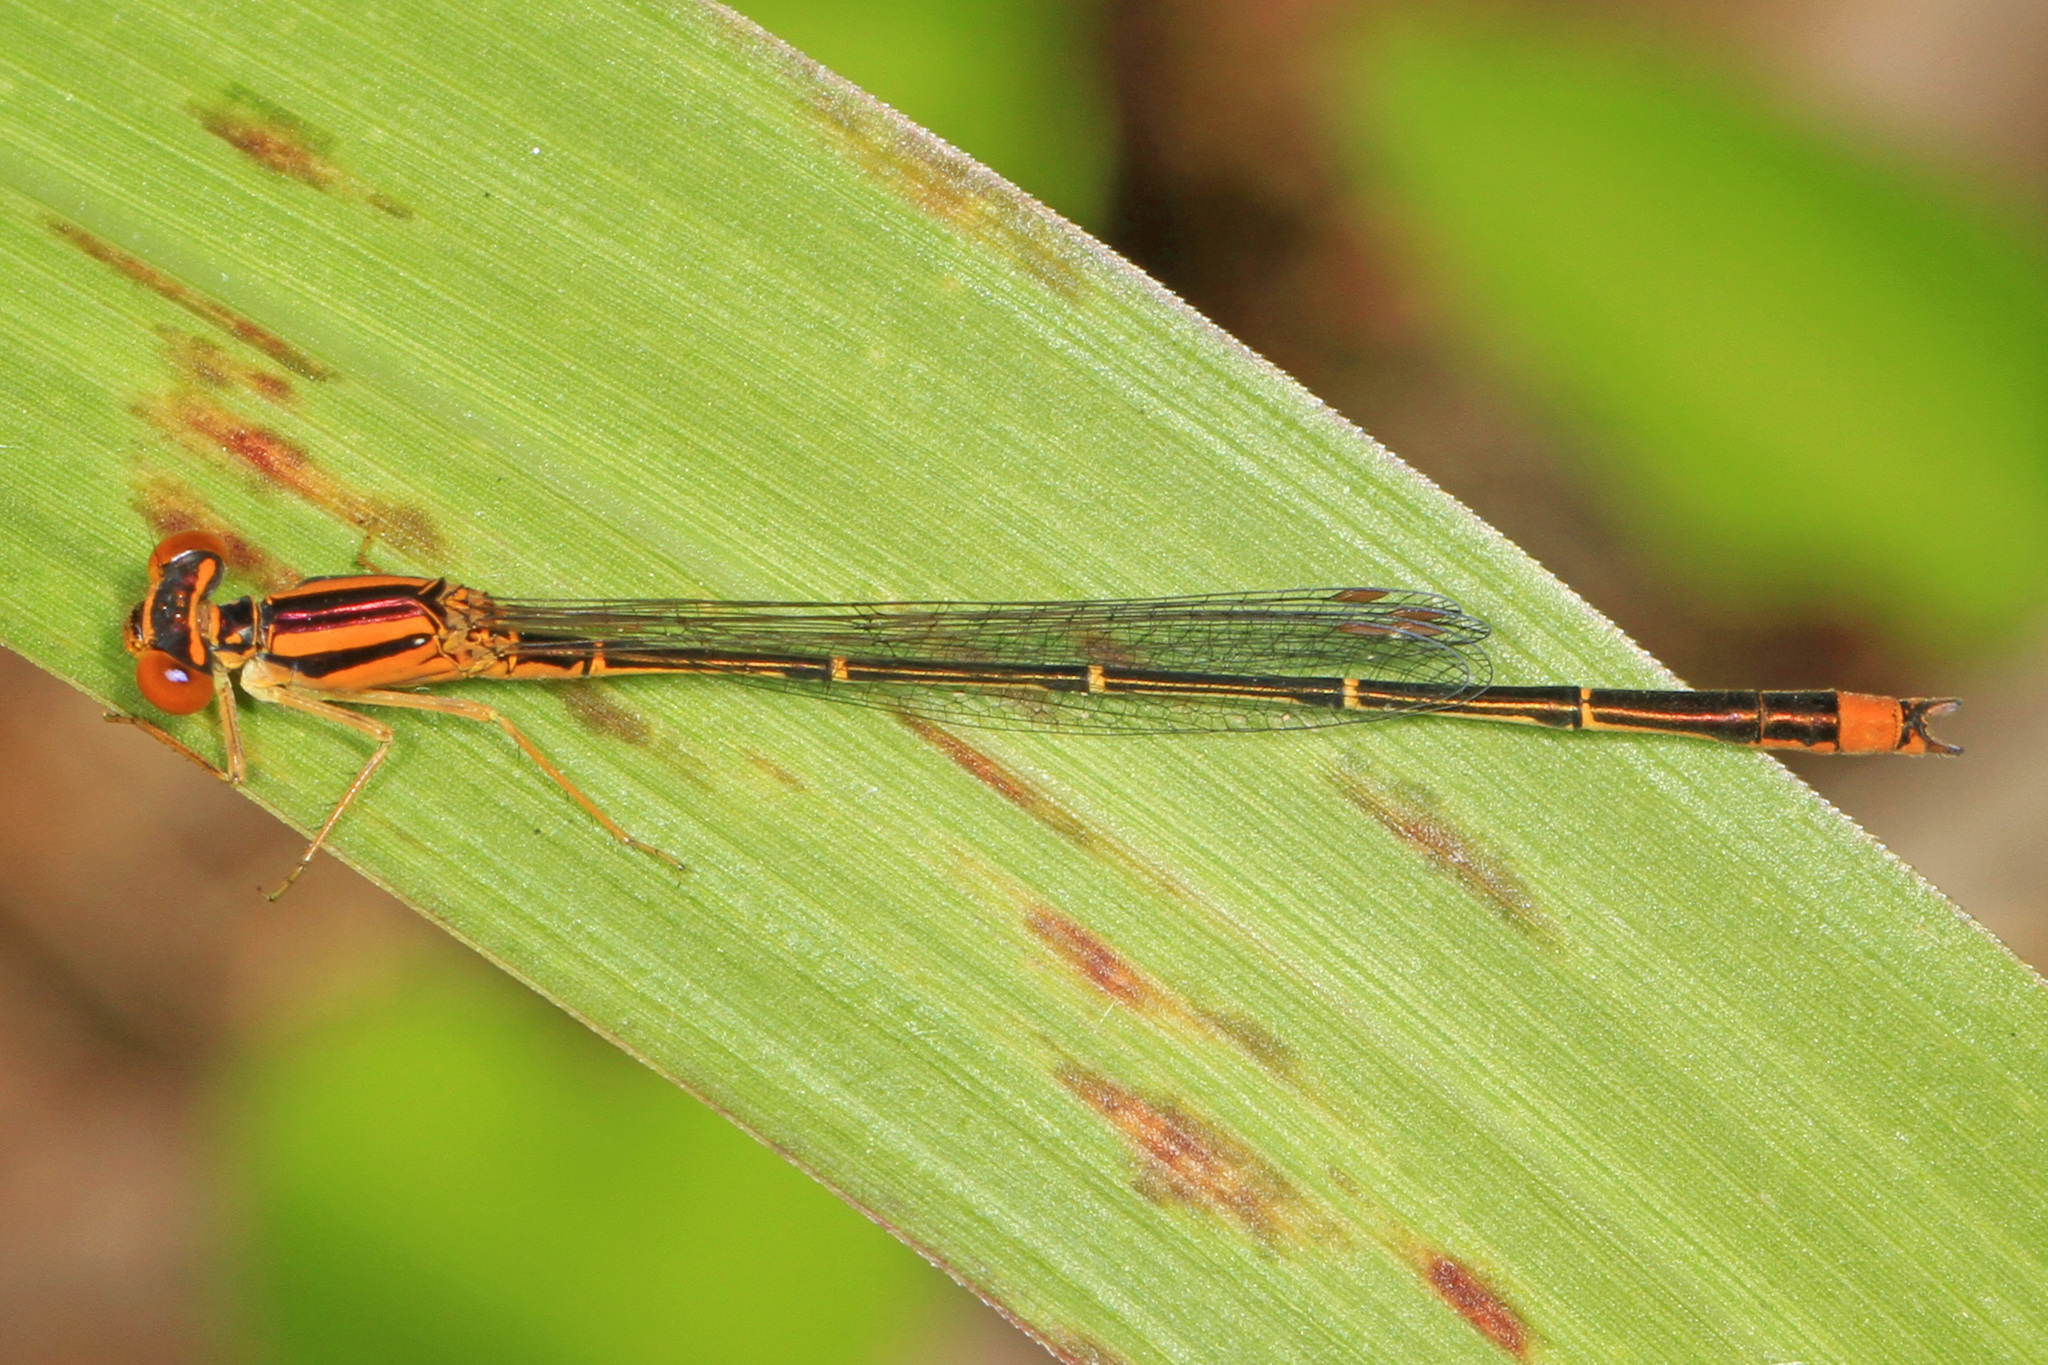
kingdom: Animalia
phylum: Arthropoda
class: Insecta
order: Odonata
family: Coenagrionidae
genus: Enallagma
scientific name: Enallagma signatum
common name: Orange bluet
